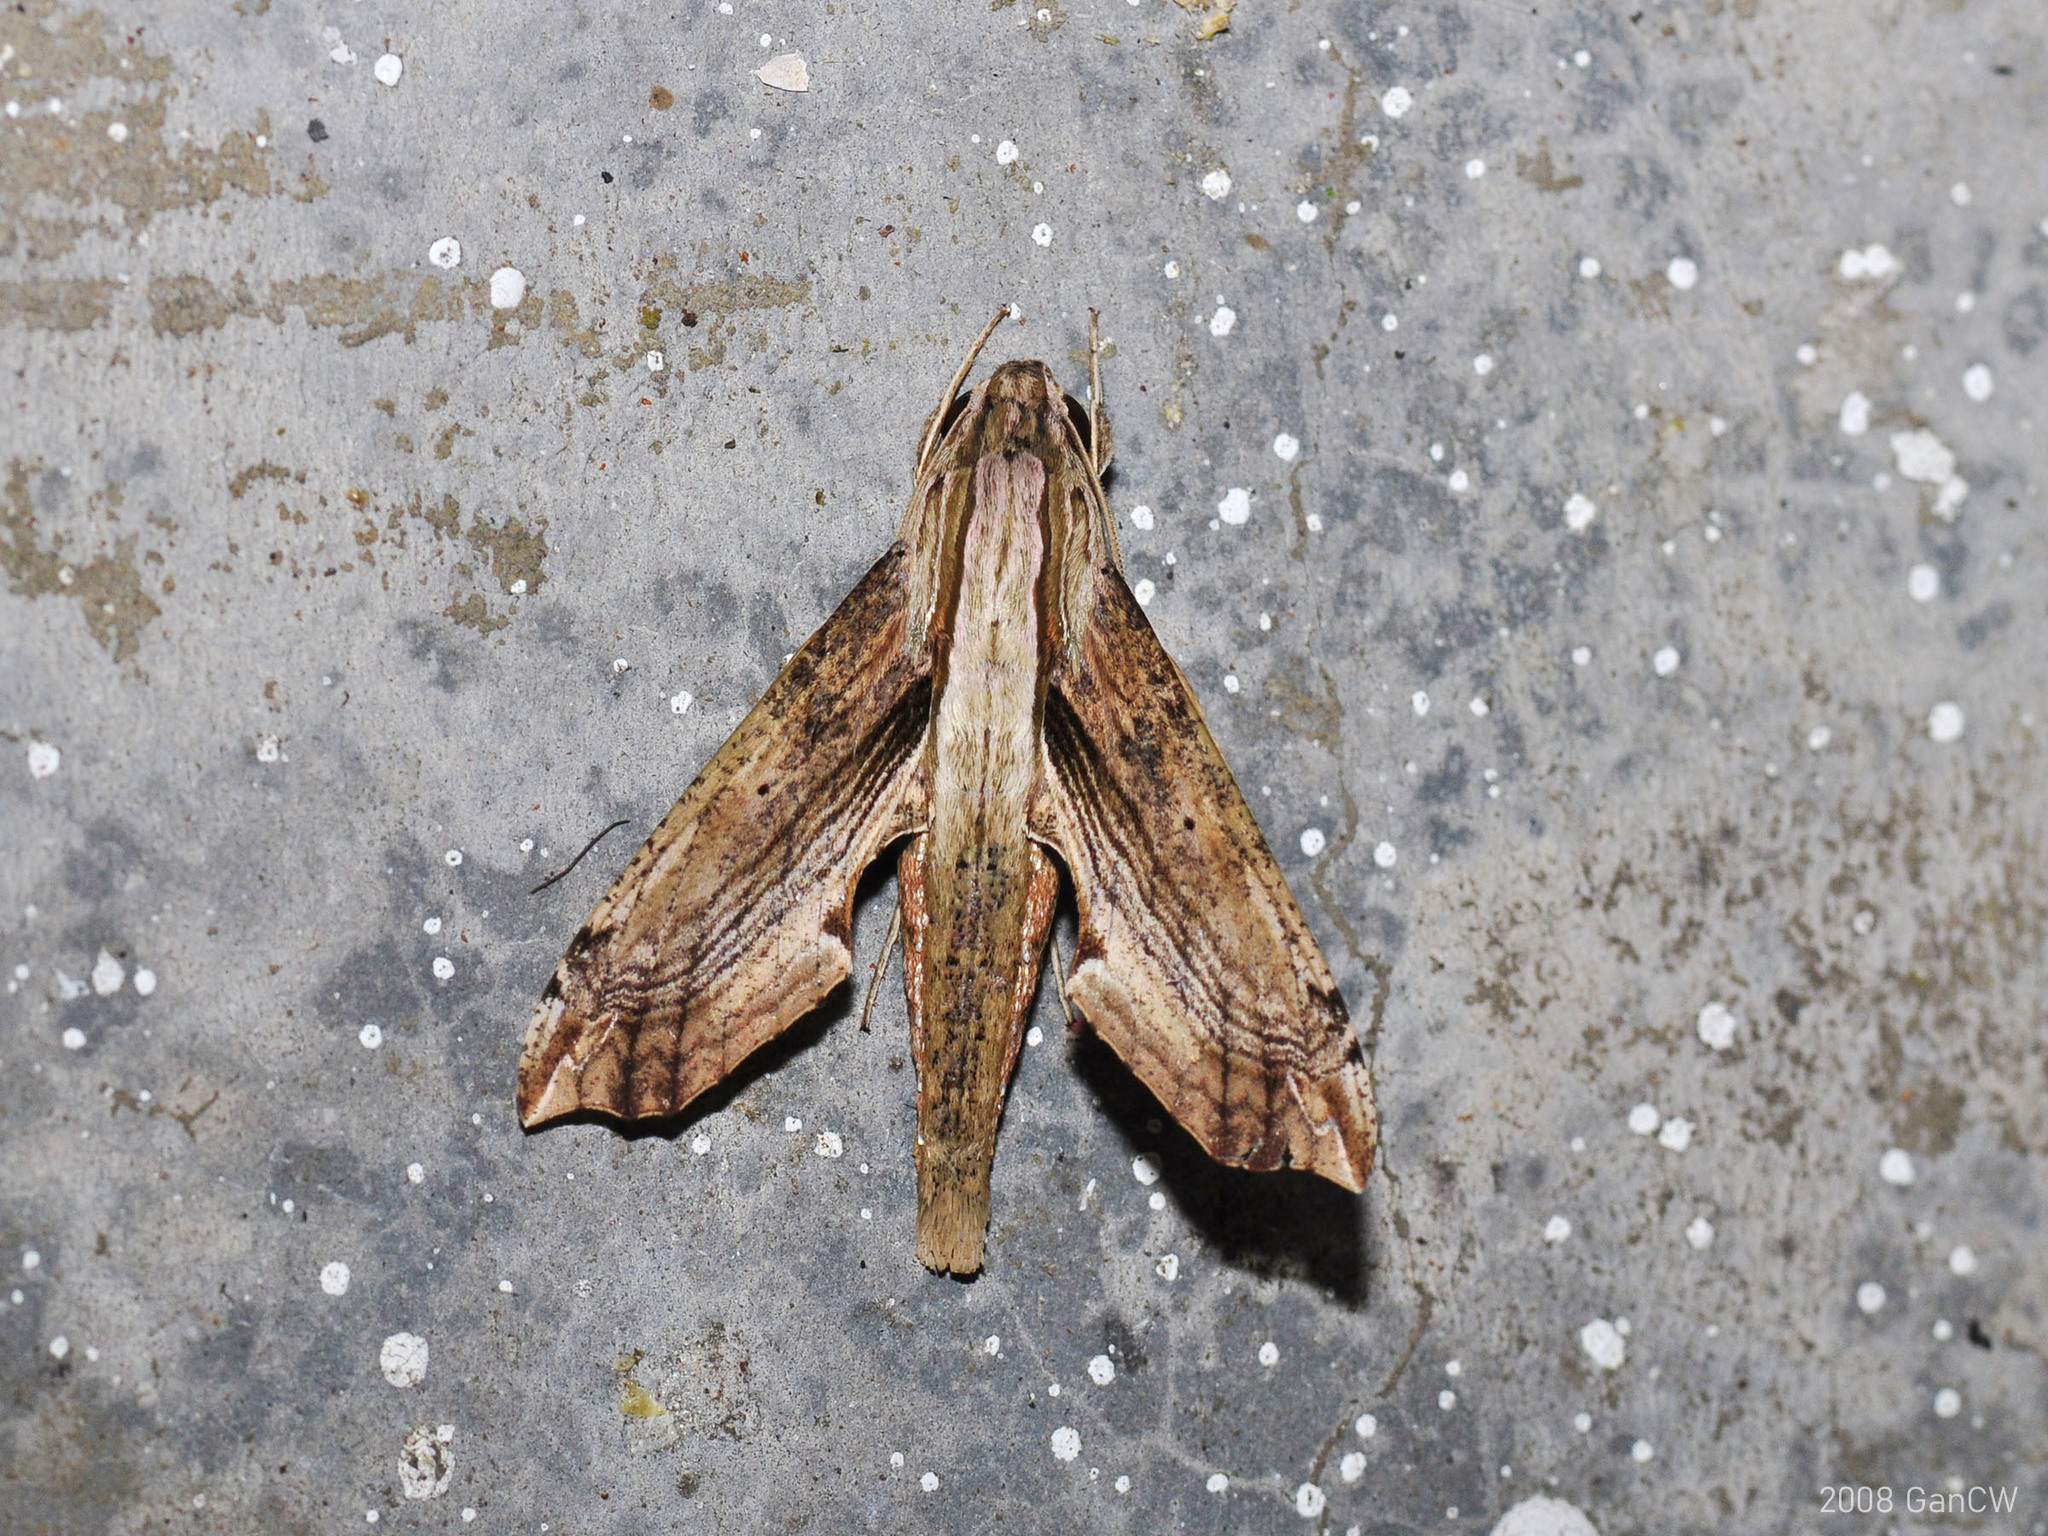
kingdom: Animalia
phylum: Arthropoda
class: Insecta
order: Lepidoptera
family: Sphingidae
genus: Eupanacra
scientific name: Eupanacra regularis
